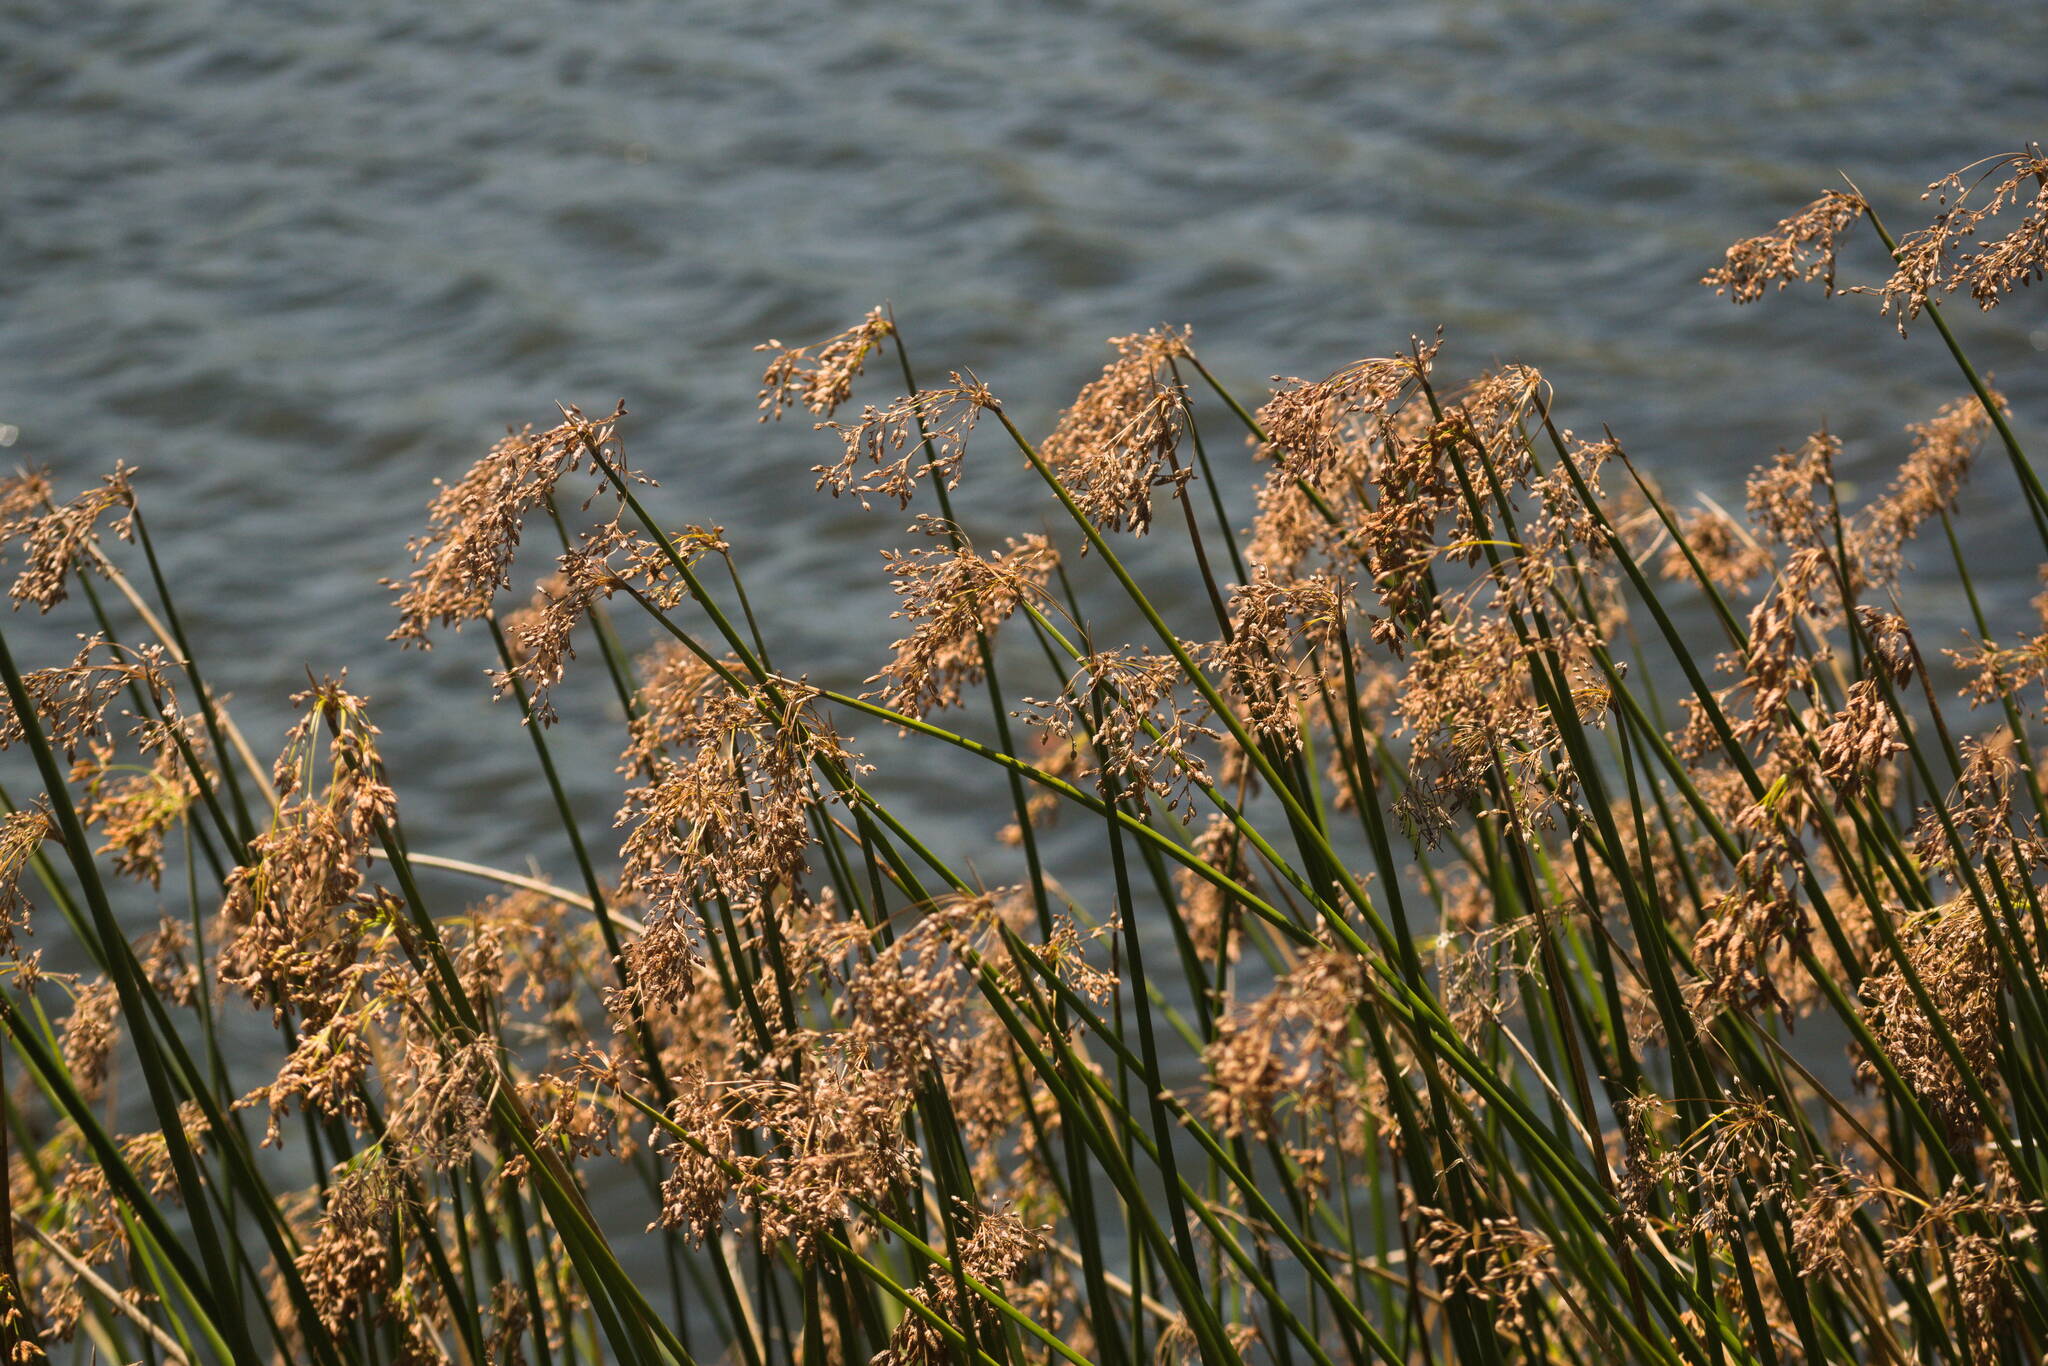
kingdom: Plantae
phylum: Tracheophyta
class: Liliopsida
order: Poales
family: Cyperaceae
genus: Schoenoplectus
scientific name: Schoenoplectus californicus
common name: California bulrush
